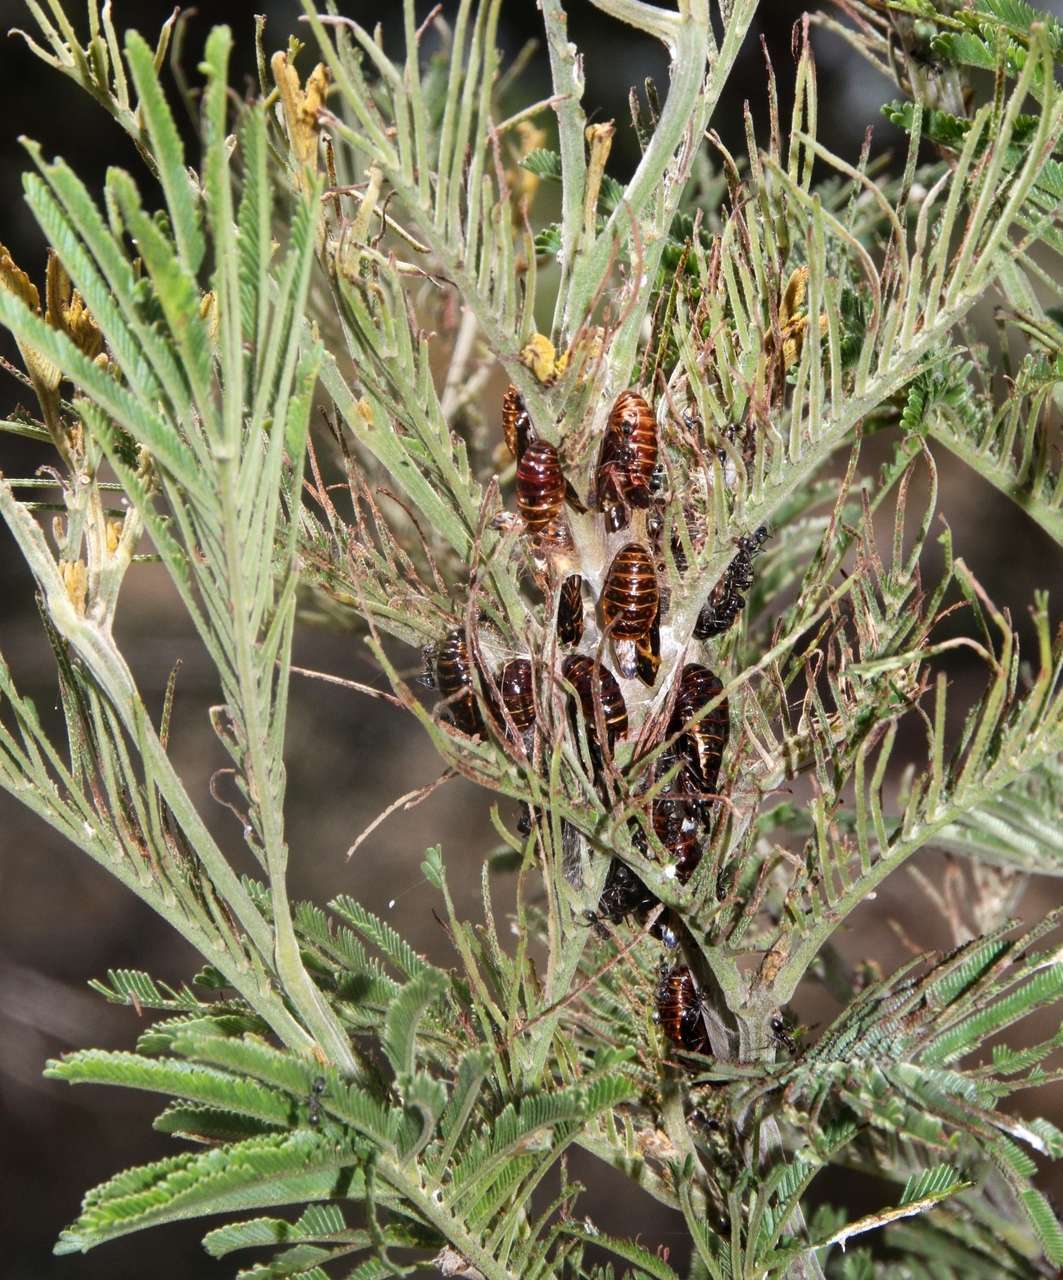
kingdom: Animalia
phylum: Arthropoda
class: Insecta
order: Lepidoptera
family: Lycaenidae
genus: Jalmenus
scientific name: Jalmenus evagoras
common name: Common imperial blue
